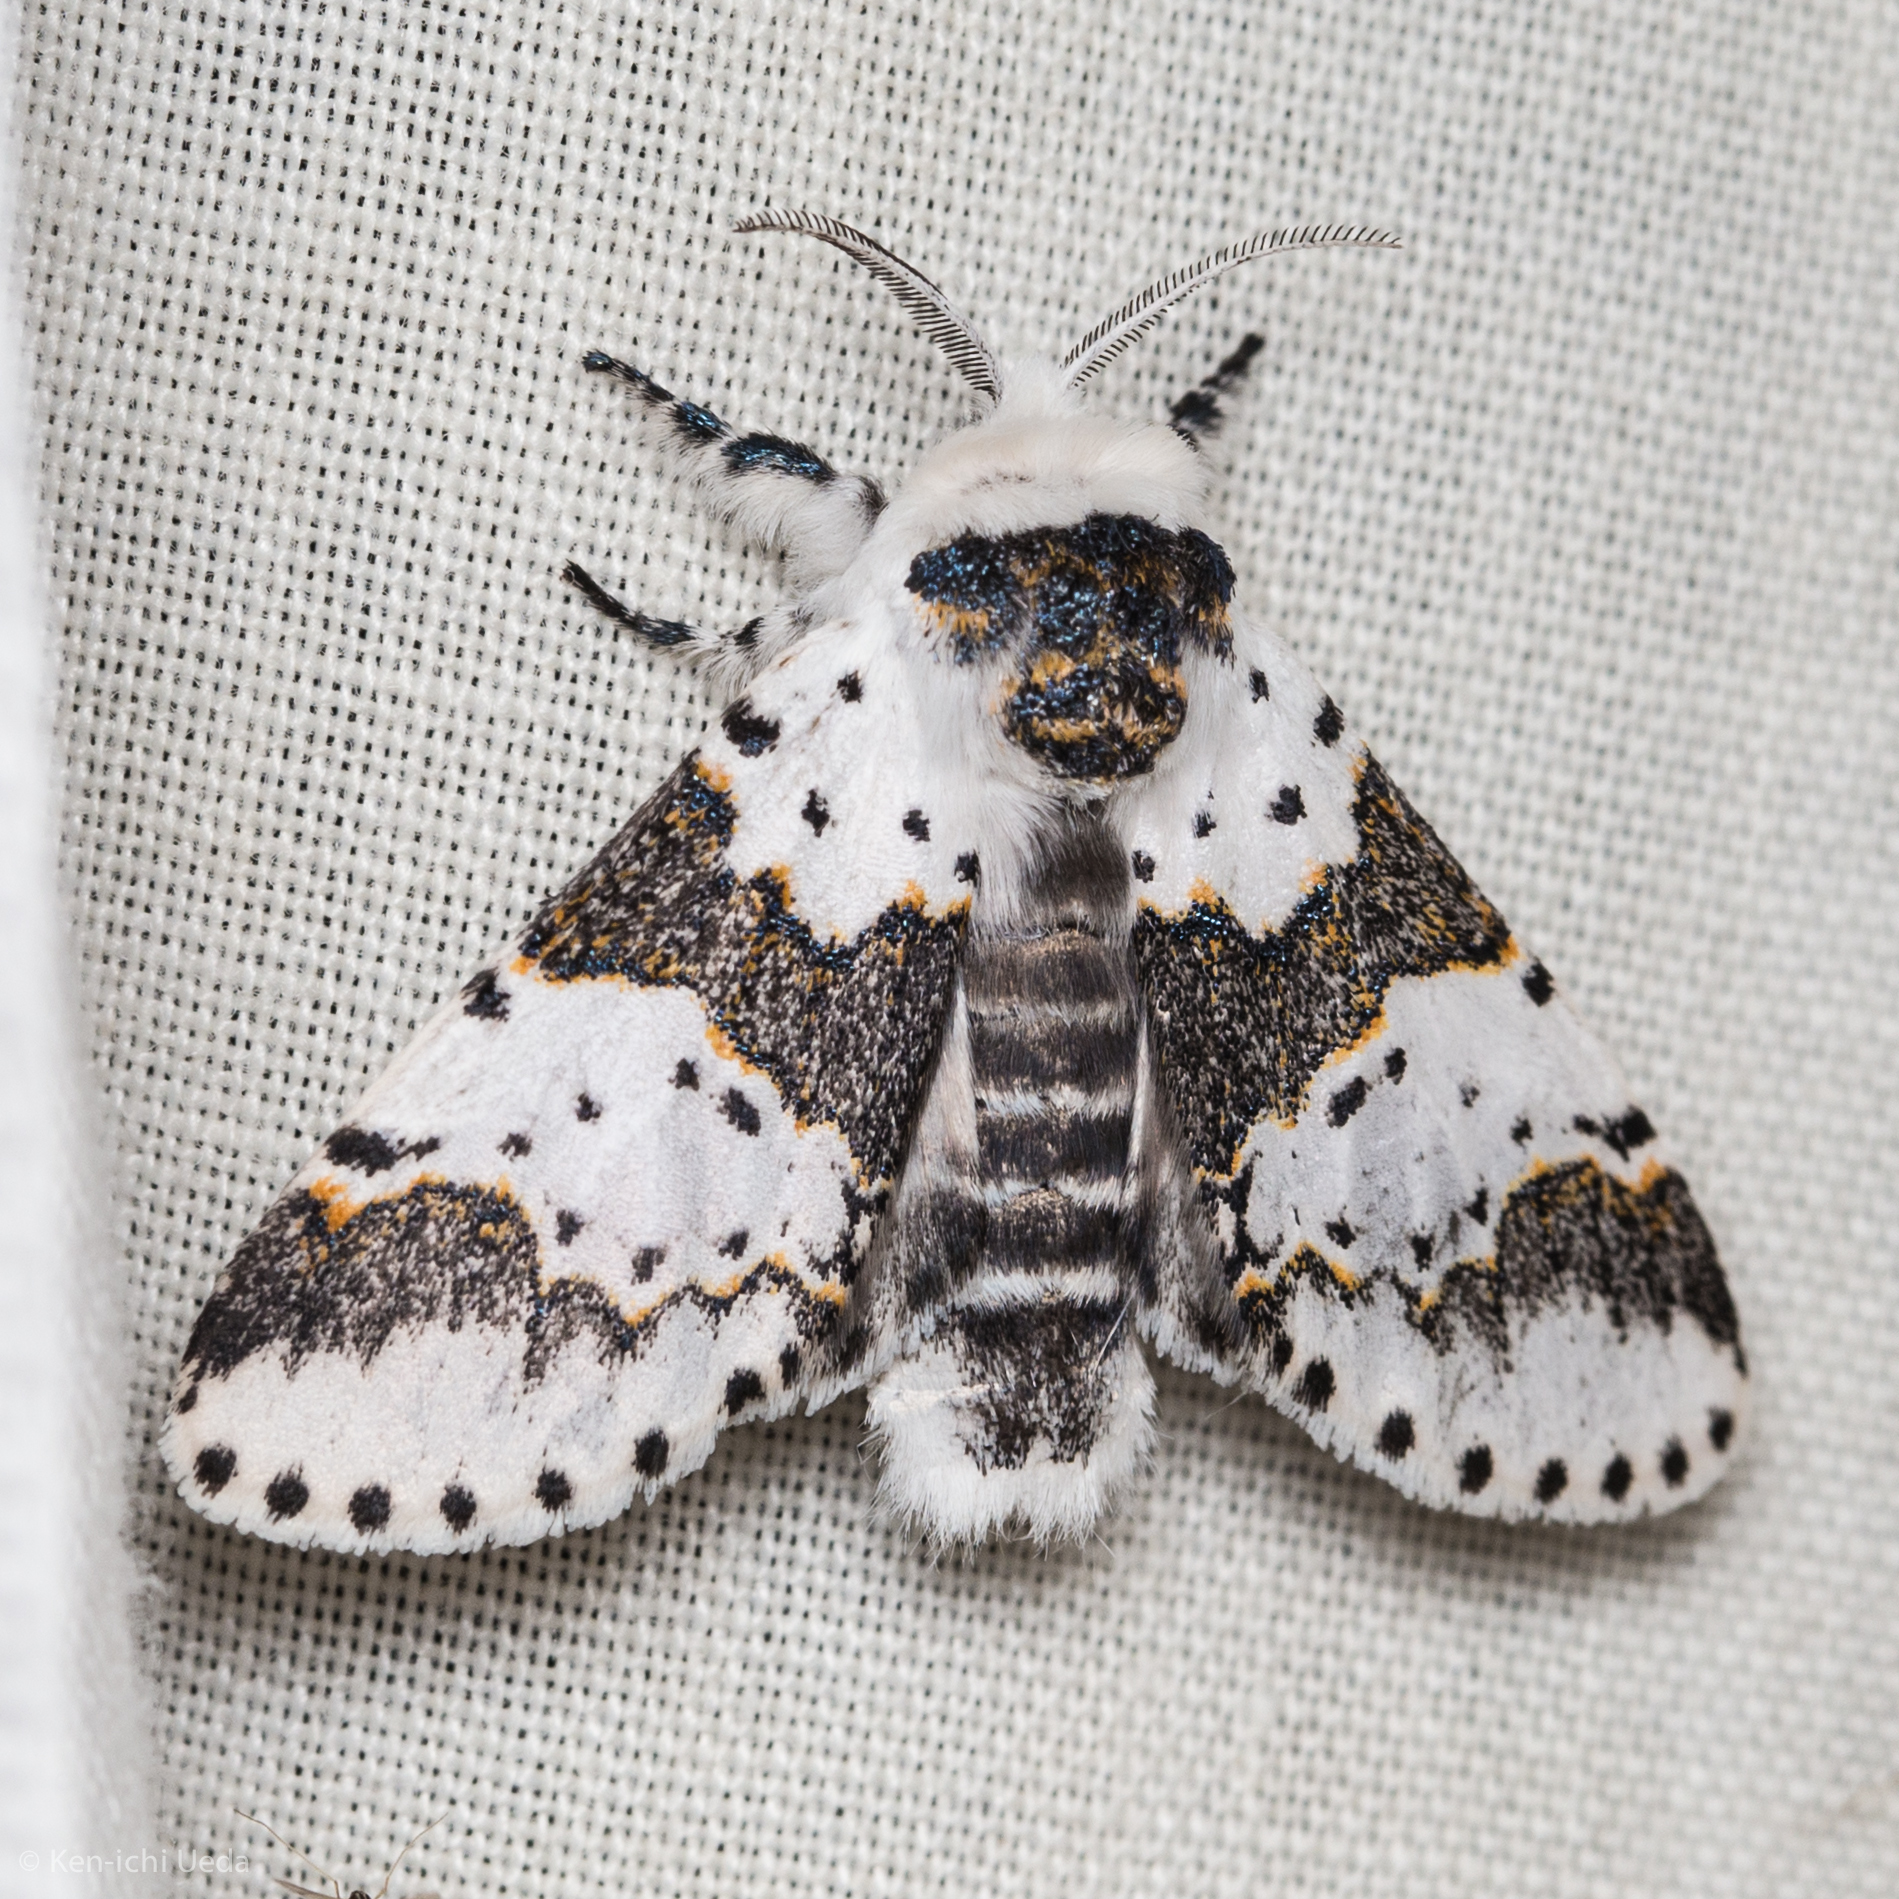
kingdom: Animalia
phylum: Arthropoda
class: Insecta
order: Lepidoptera
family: Notodontidae
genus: Furcula
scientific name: Furcula borealis
